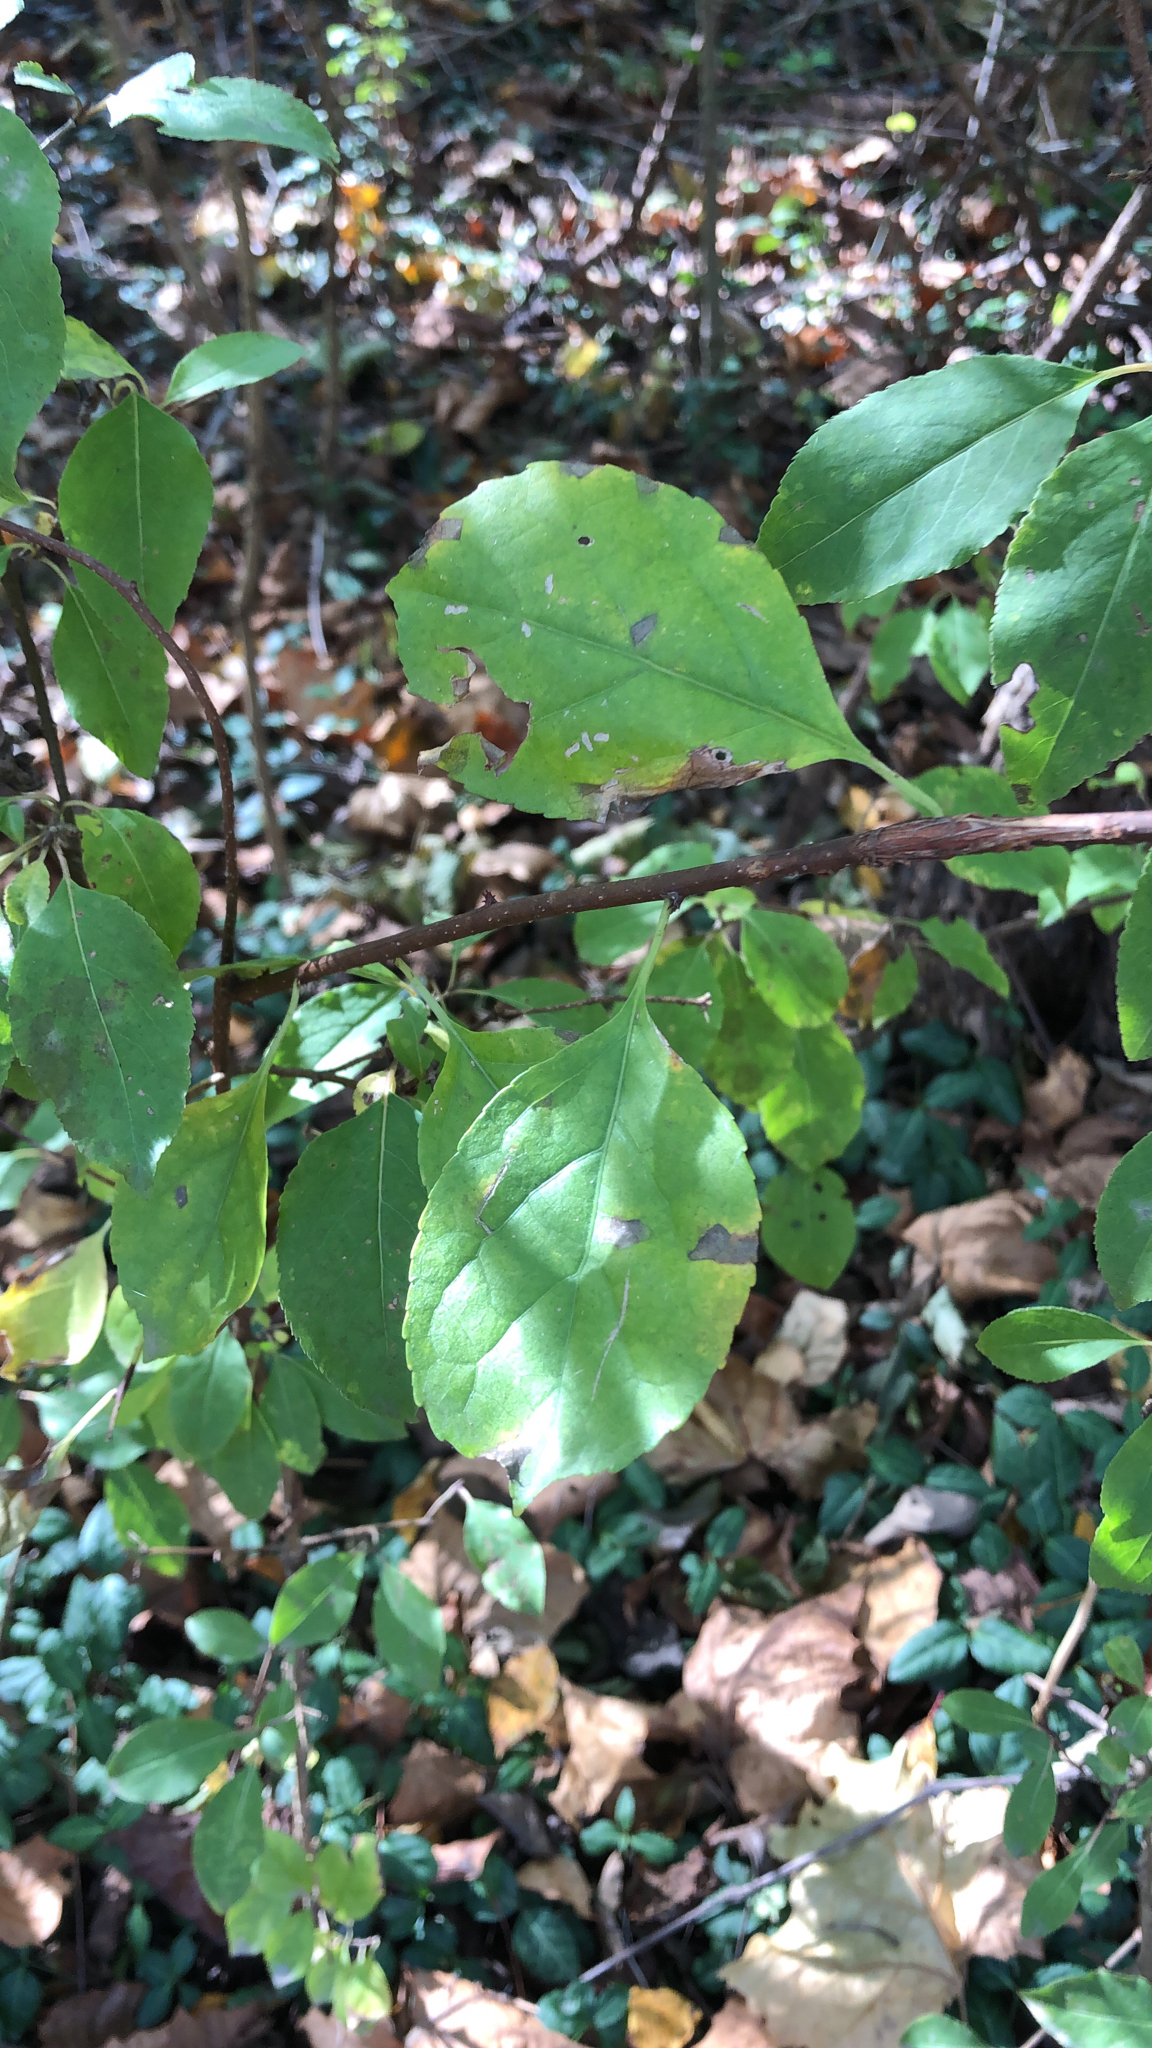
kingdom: Plantae
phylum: Tracheophyta
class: Magnoliopsida
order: Celastrales
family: Celastraceae
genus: Celastrus
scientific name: Celastrus orbiculatus
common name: Oriental bittersweet
